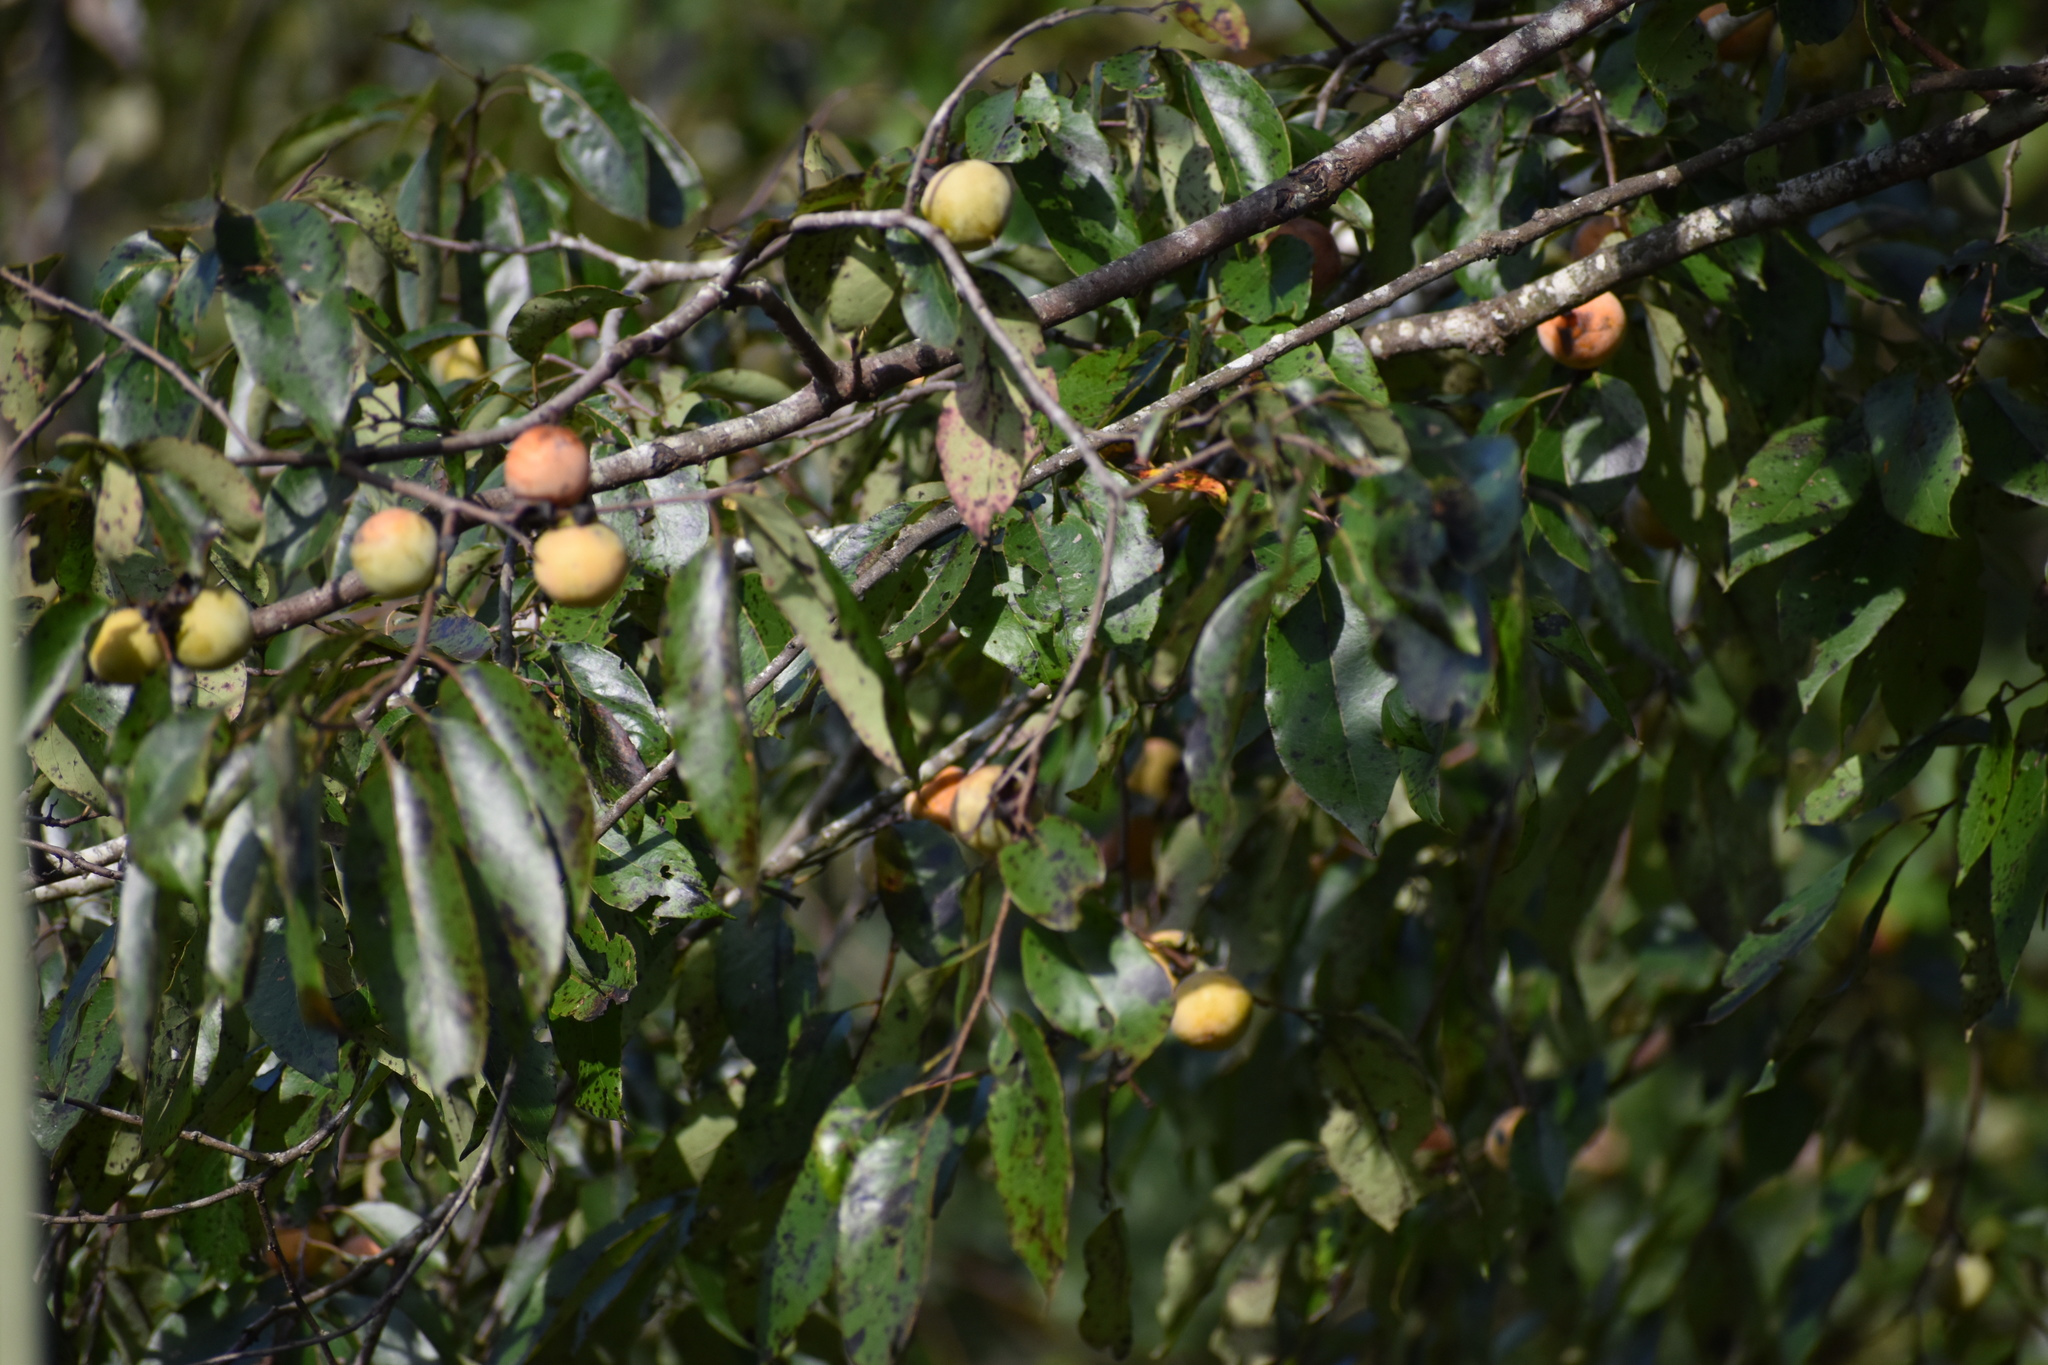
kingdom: Plantae
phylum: Tracheophyta
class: Magnoliopsida
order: Ericales
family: Ebenaceae
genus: Diospyros
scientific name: Diospyros virginiana
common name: Persimmon
